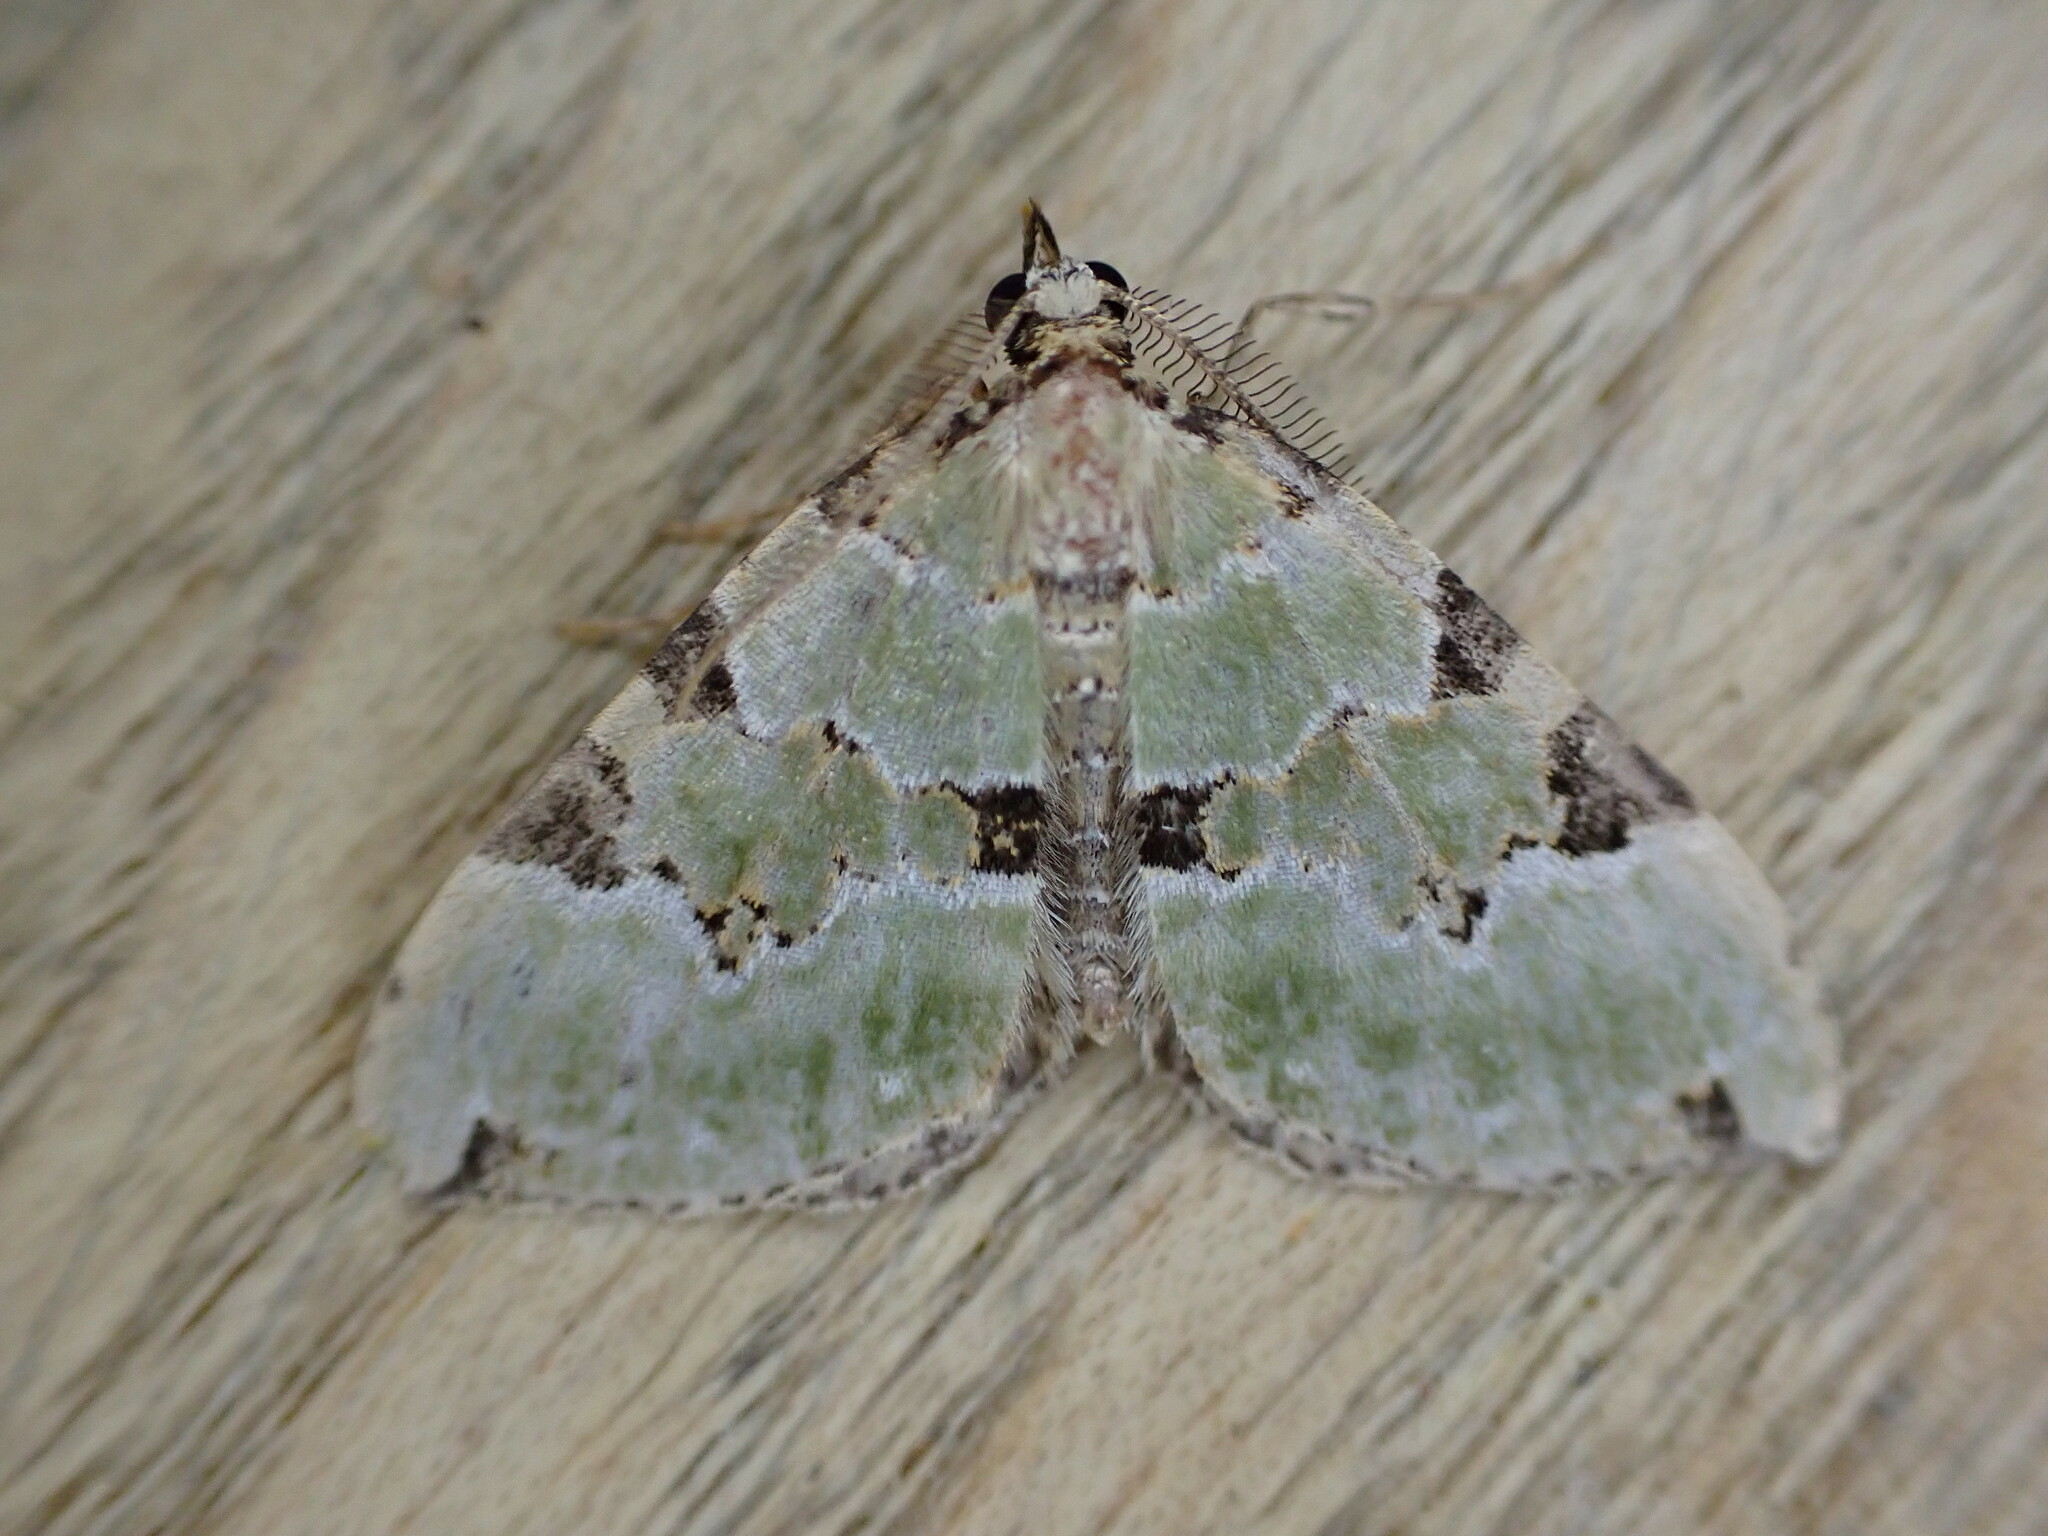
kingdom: Animalia
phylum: Arthropoda
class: Insecta
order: Lepidoptera
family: Geometridae
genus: Colostygia
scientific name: Colostygia pectinataria
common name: Green carpet
